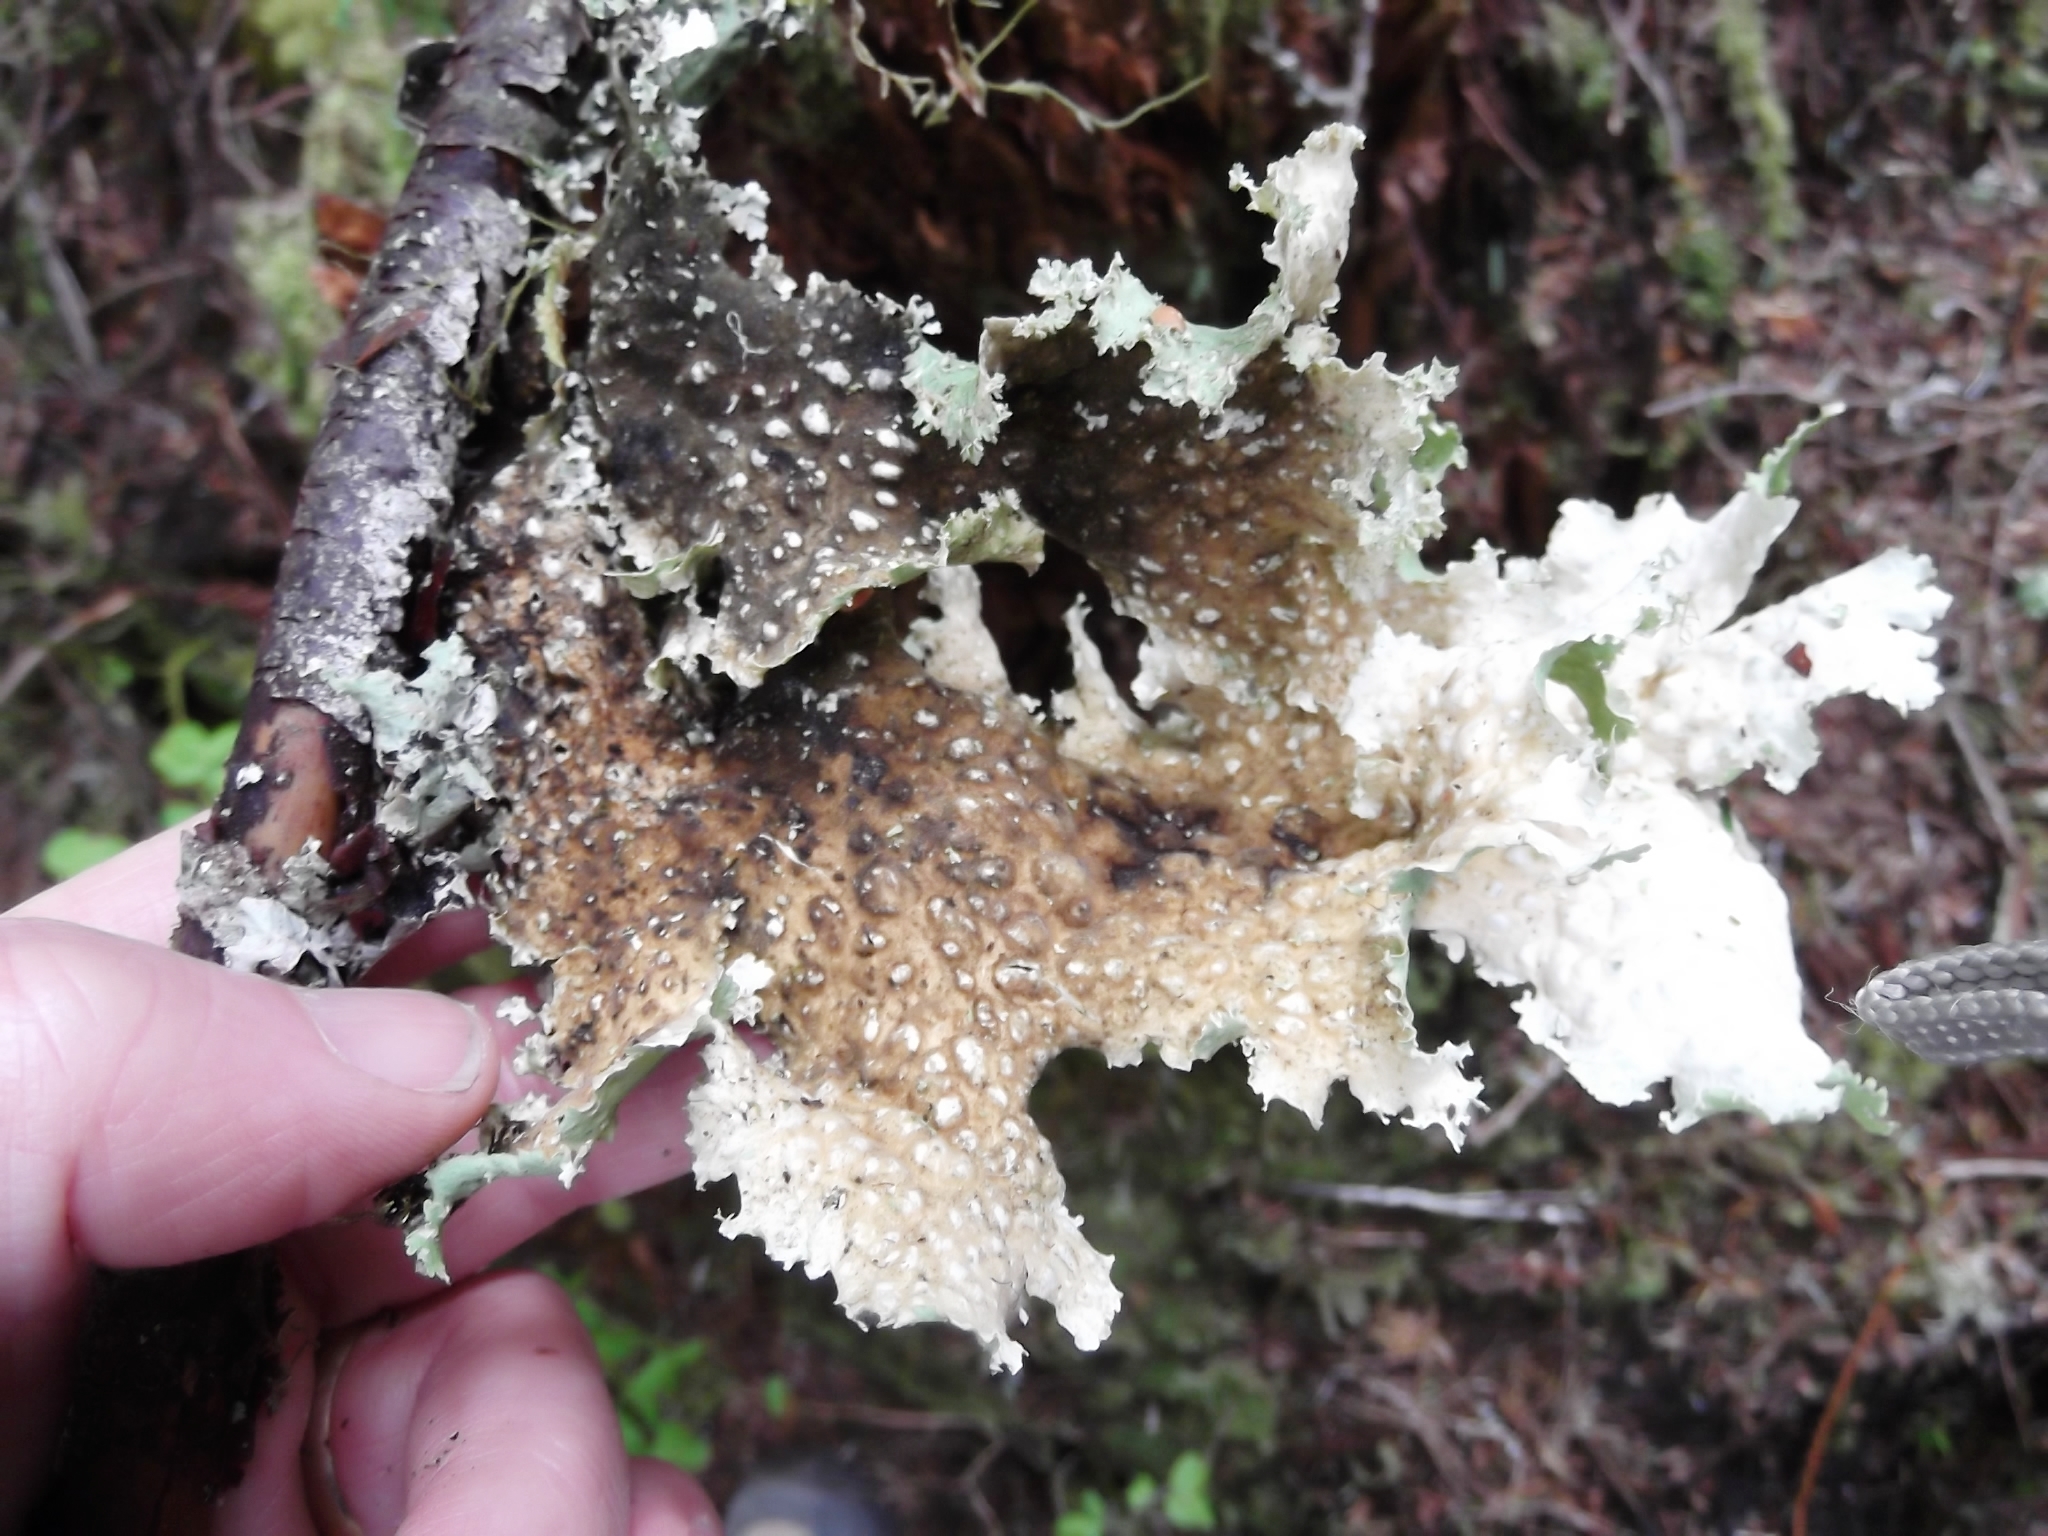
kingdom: Fungi
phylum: Ascomycota
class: Lecanoromycetes
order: Peltigerales
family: Lobariaceae
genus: Lobaria
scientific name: Lobaria oregana
